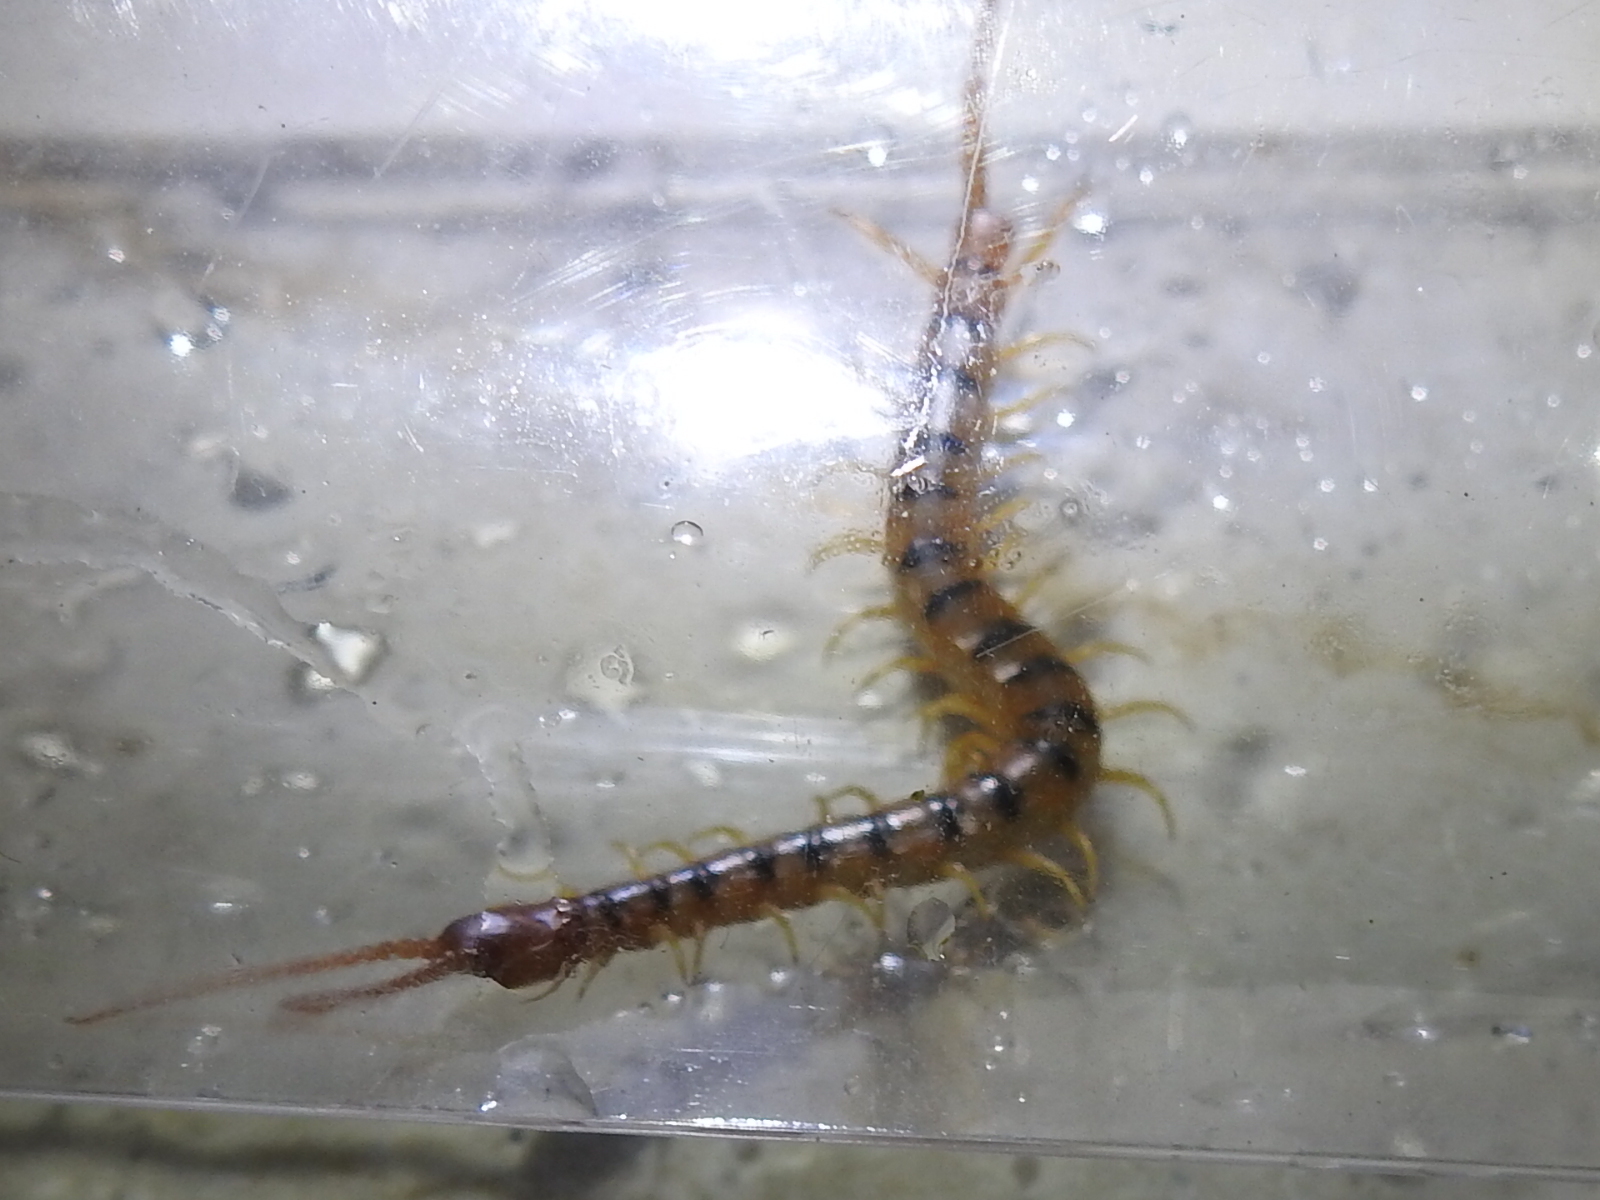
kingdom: Animalia
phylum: Arthropoda
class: Chilopoda
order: Scolopendromorpha
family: Scolopendridae
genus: Scolopendra
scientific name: Scolopendra polymorpha
